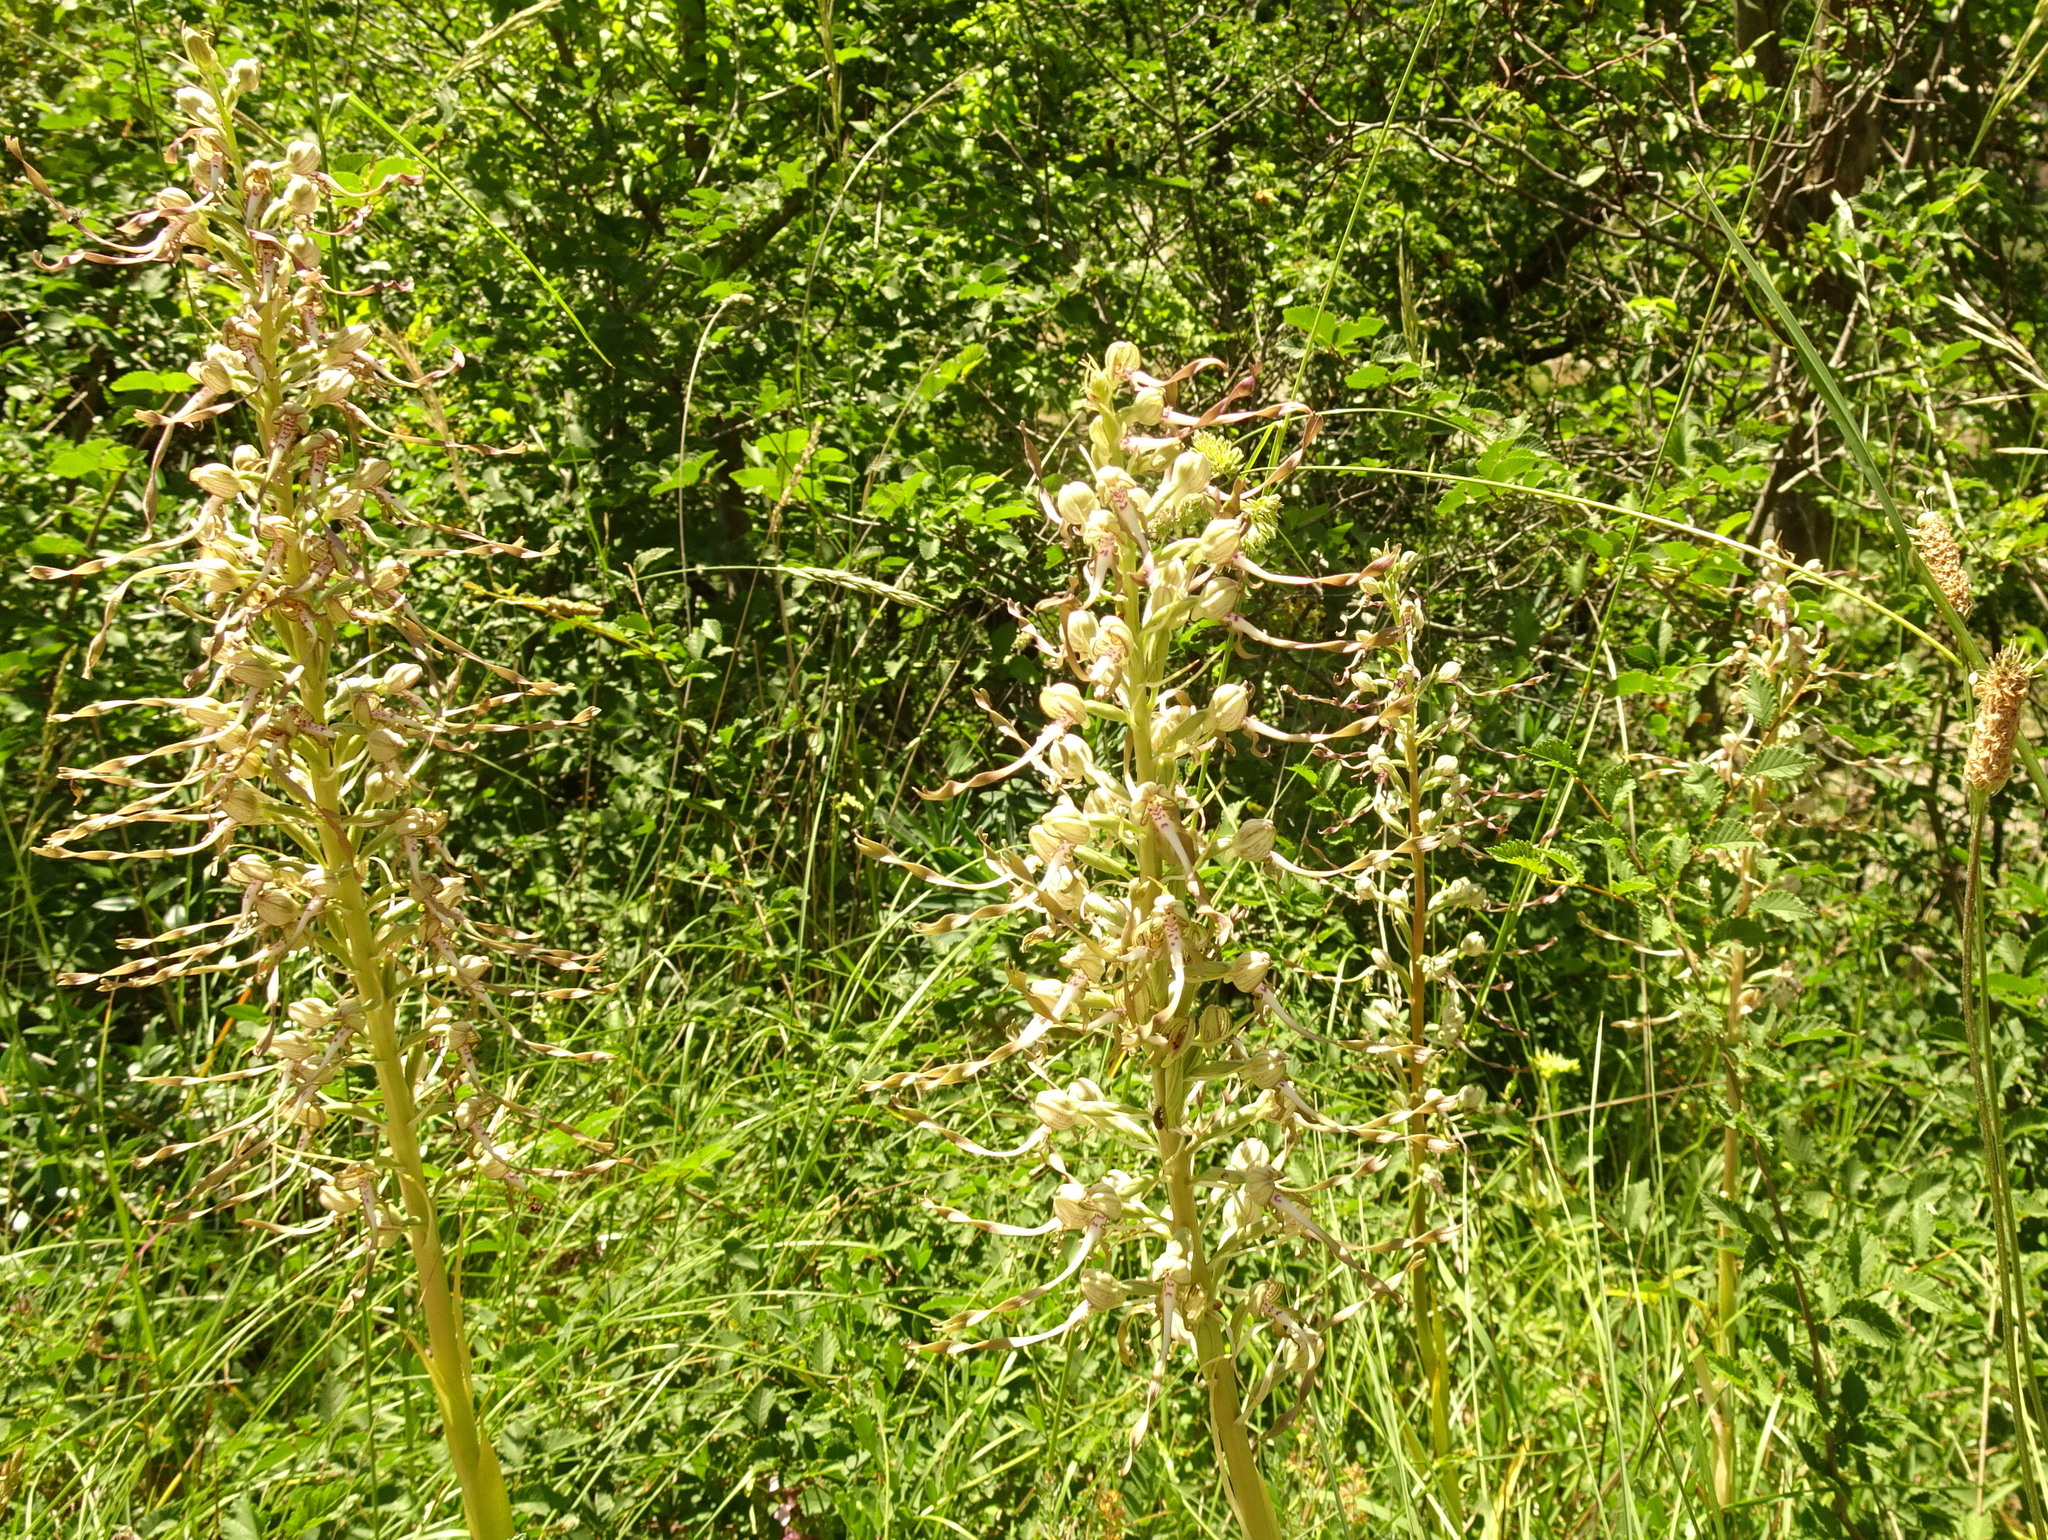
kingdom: Plantae
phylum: Tracheophyta
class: Liliopsida
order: Asparagales
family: Orchidaceae
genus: Himantoglossum
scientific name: Himantoglossum hircinum
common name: Lizard orchid
